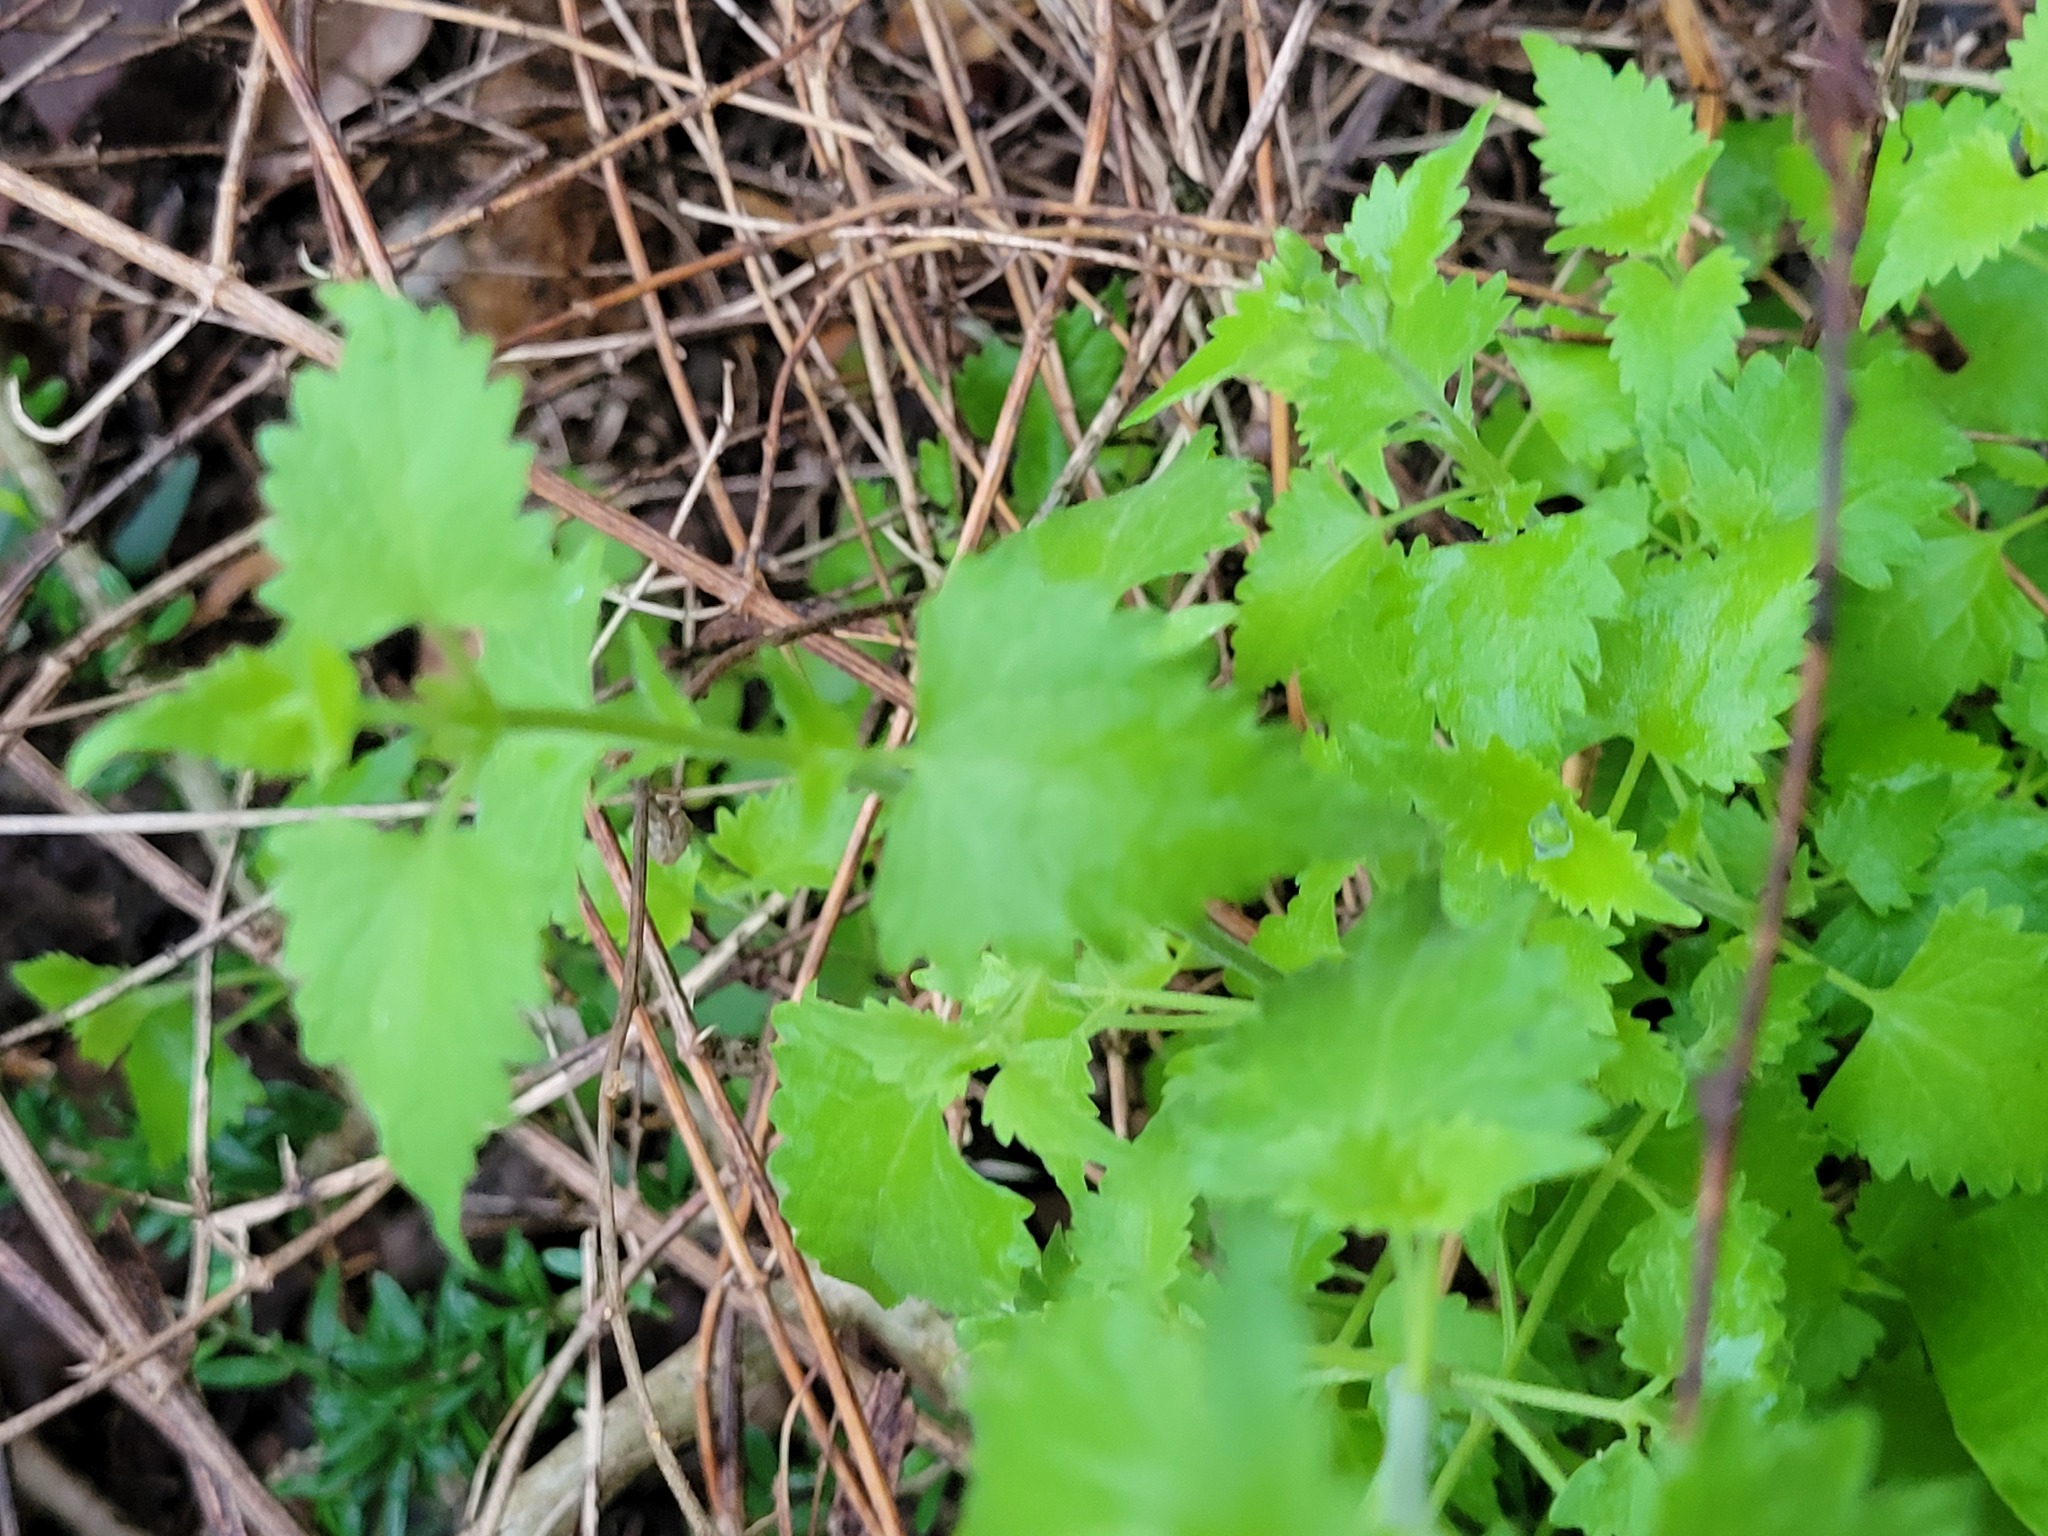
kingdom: Plantae
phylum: Tracheophyta
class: Magnoliopsida
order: Asterales
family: Asteraceae
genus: Fleischmannia
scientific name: Fleischmannia incarnata
